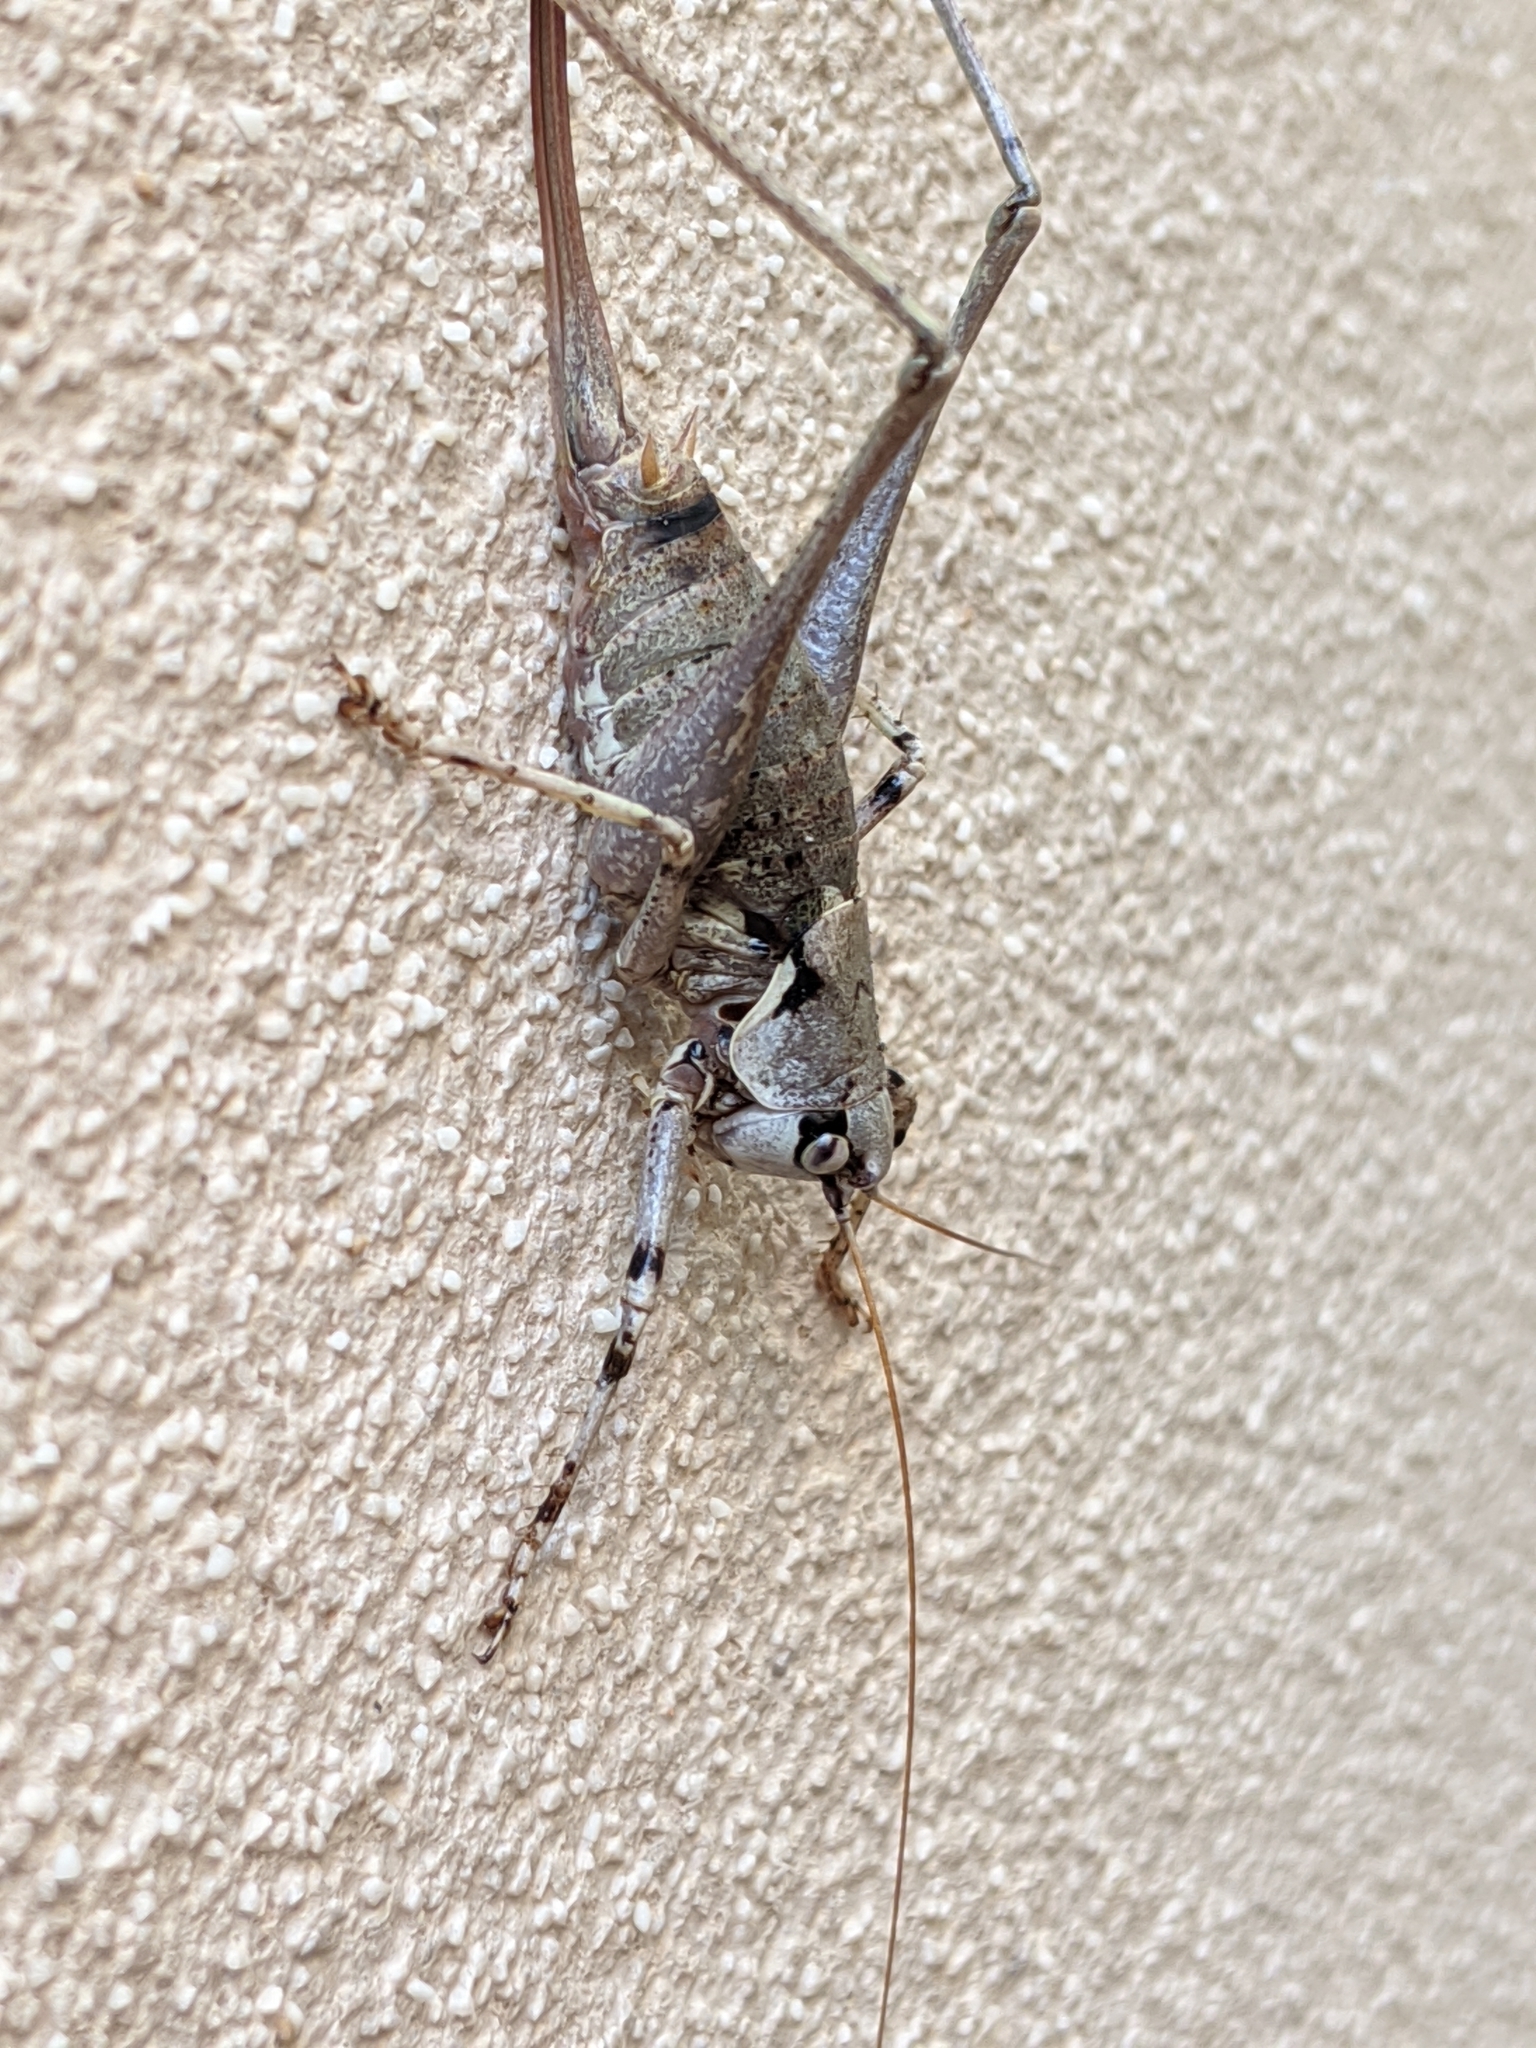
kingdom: Animalia
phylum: Arthropoda
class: Insecta
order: Orthoptera
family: Tettigoniidae
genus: Antaxius
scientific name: Antaxius pedestris
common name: Common mountain bush-cricket
